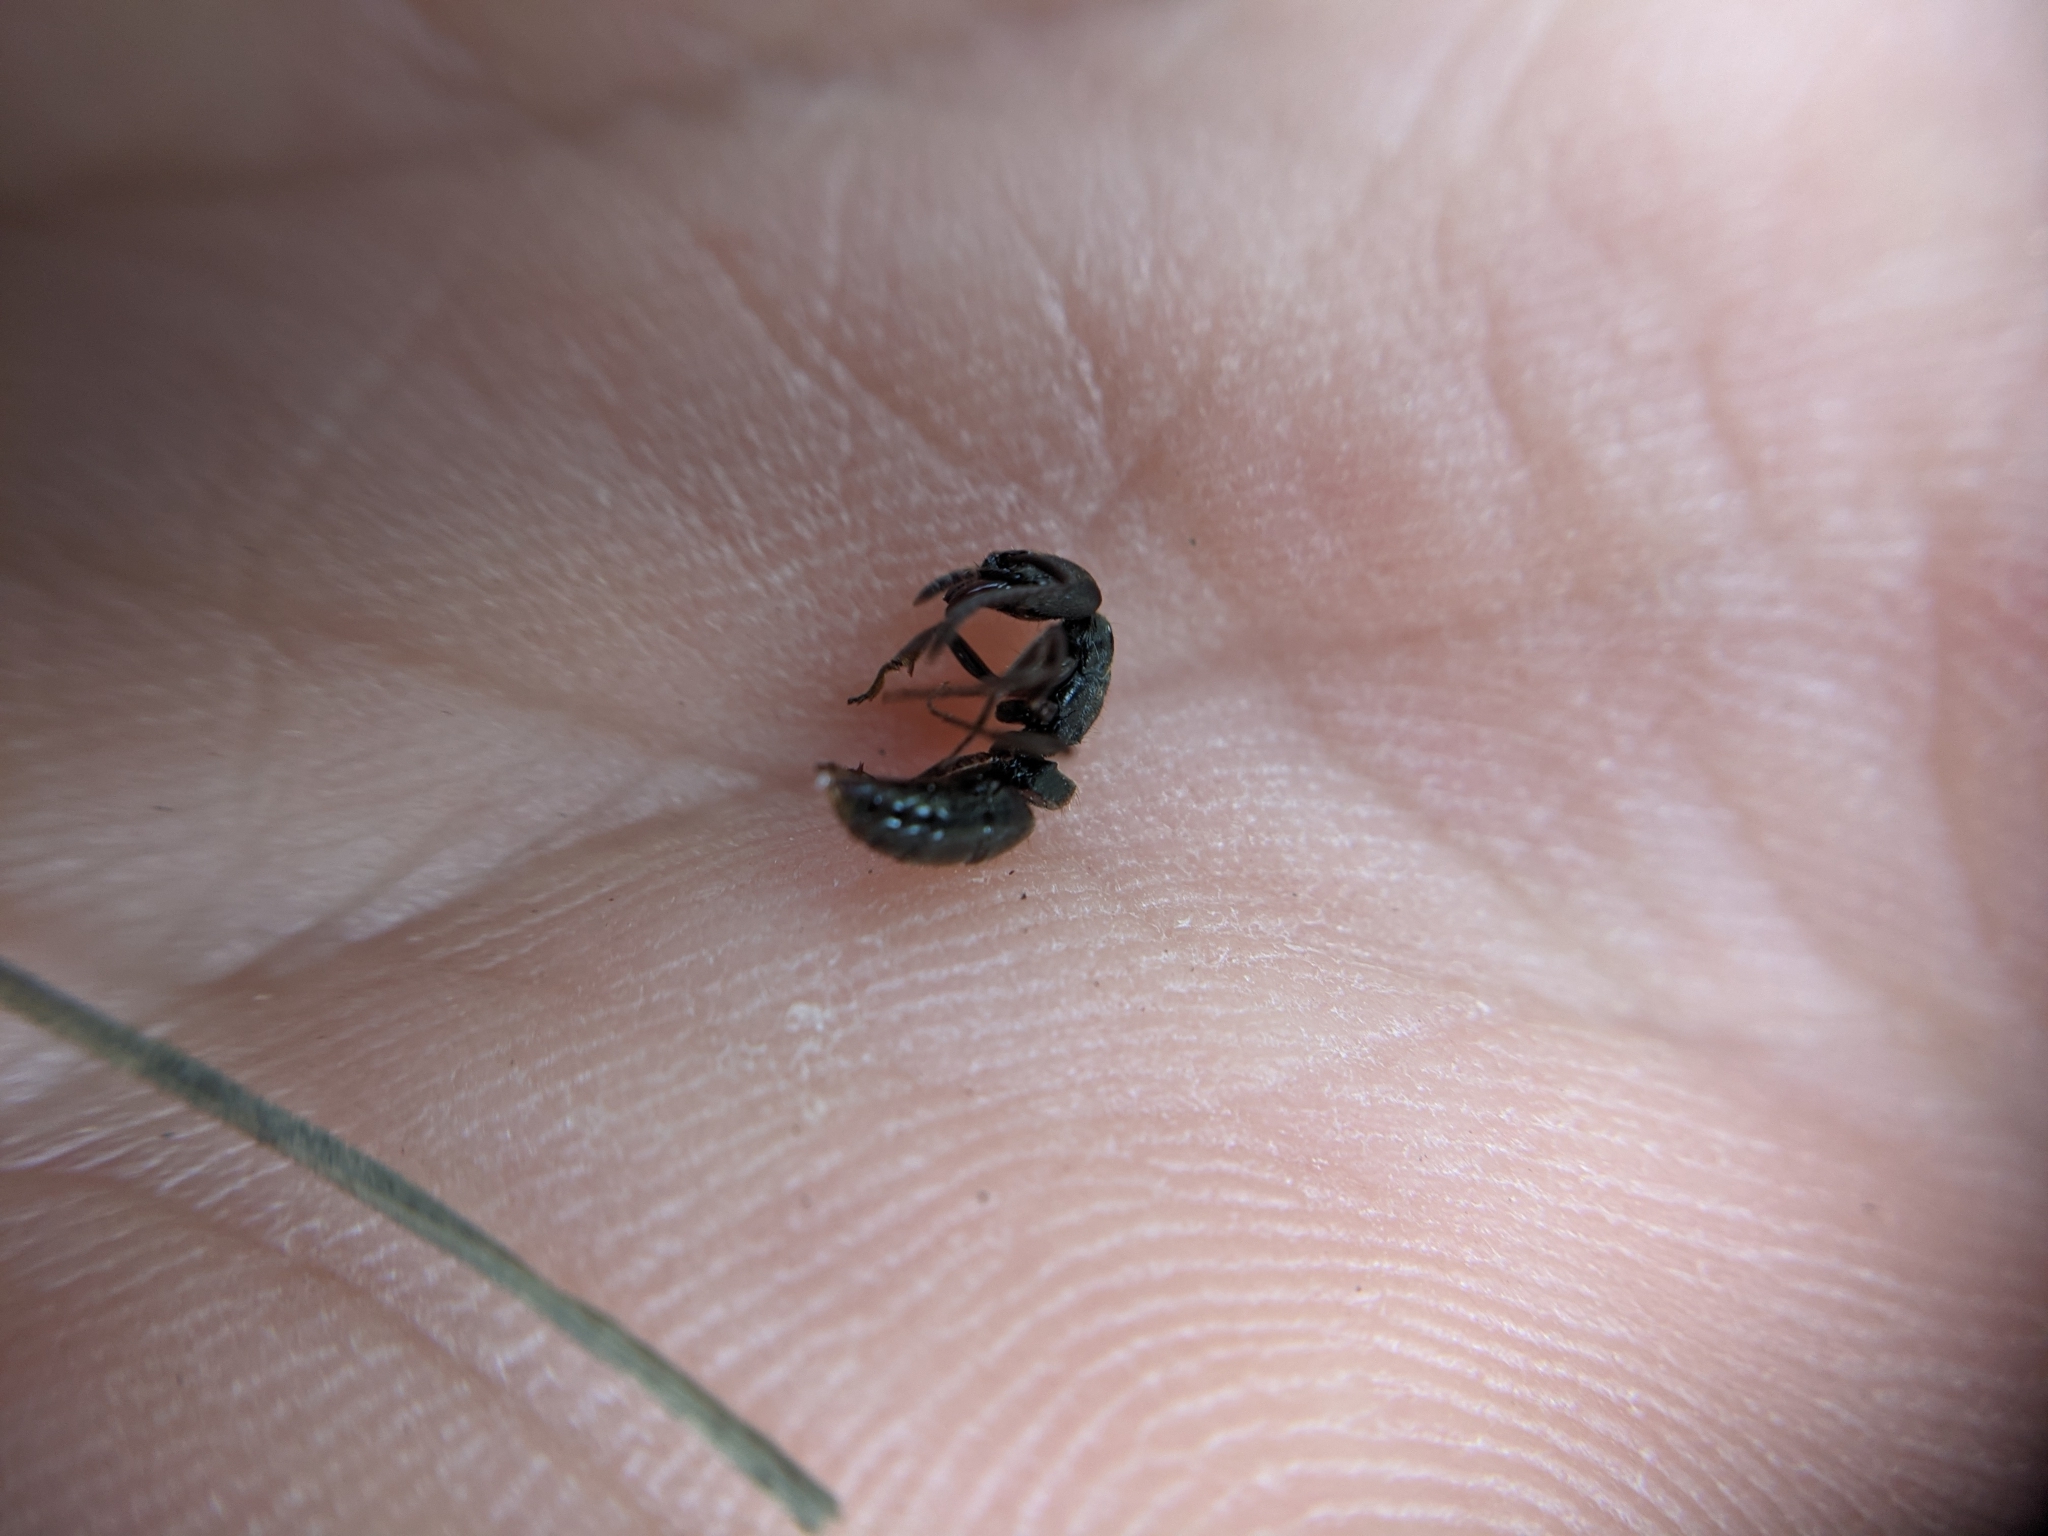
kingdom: Animalia
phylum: Arthropoda
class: Insecta
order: Hymenoptera
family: Formicidae
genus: Pachycondyla
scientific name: Pachycondyla harpax
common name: Ant
